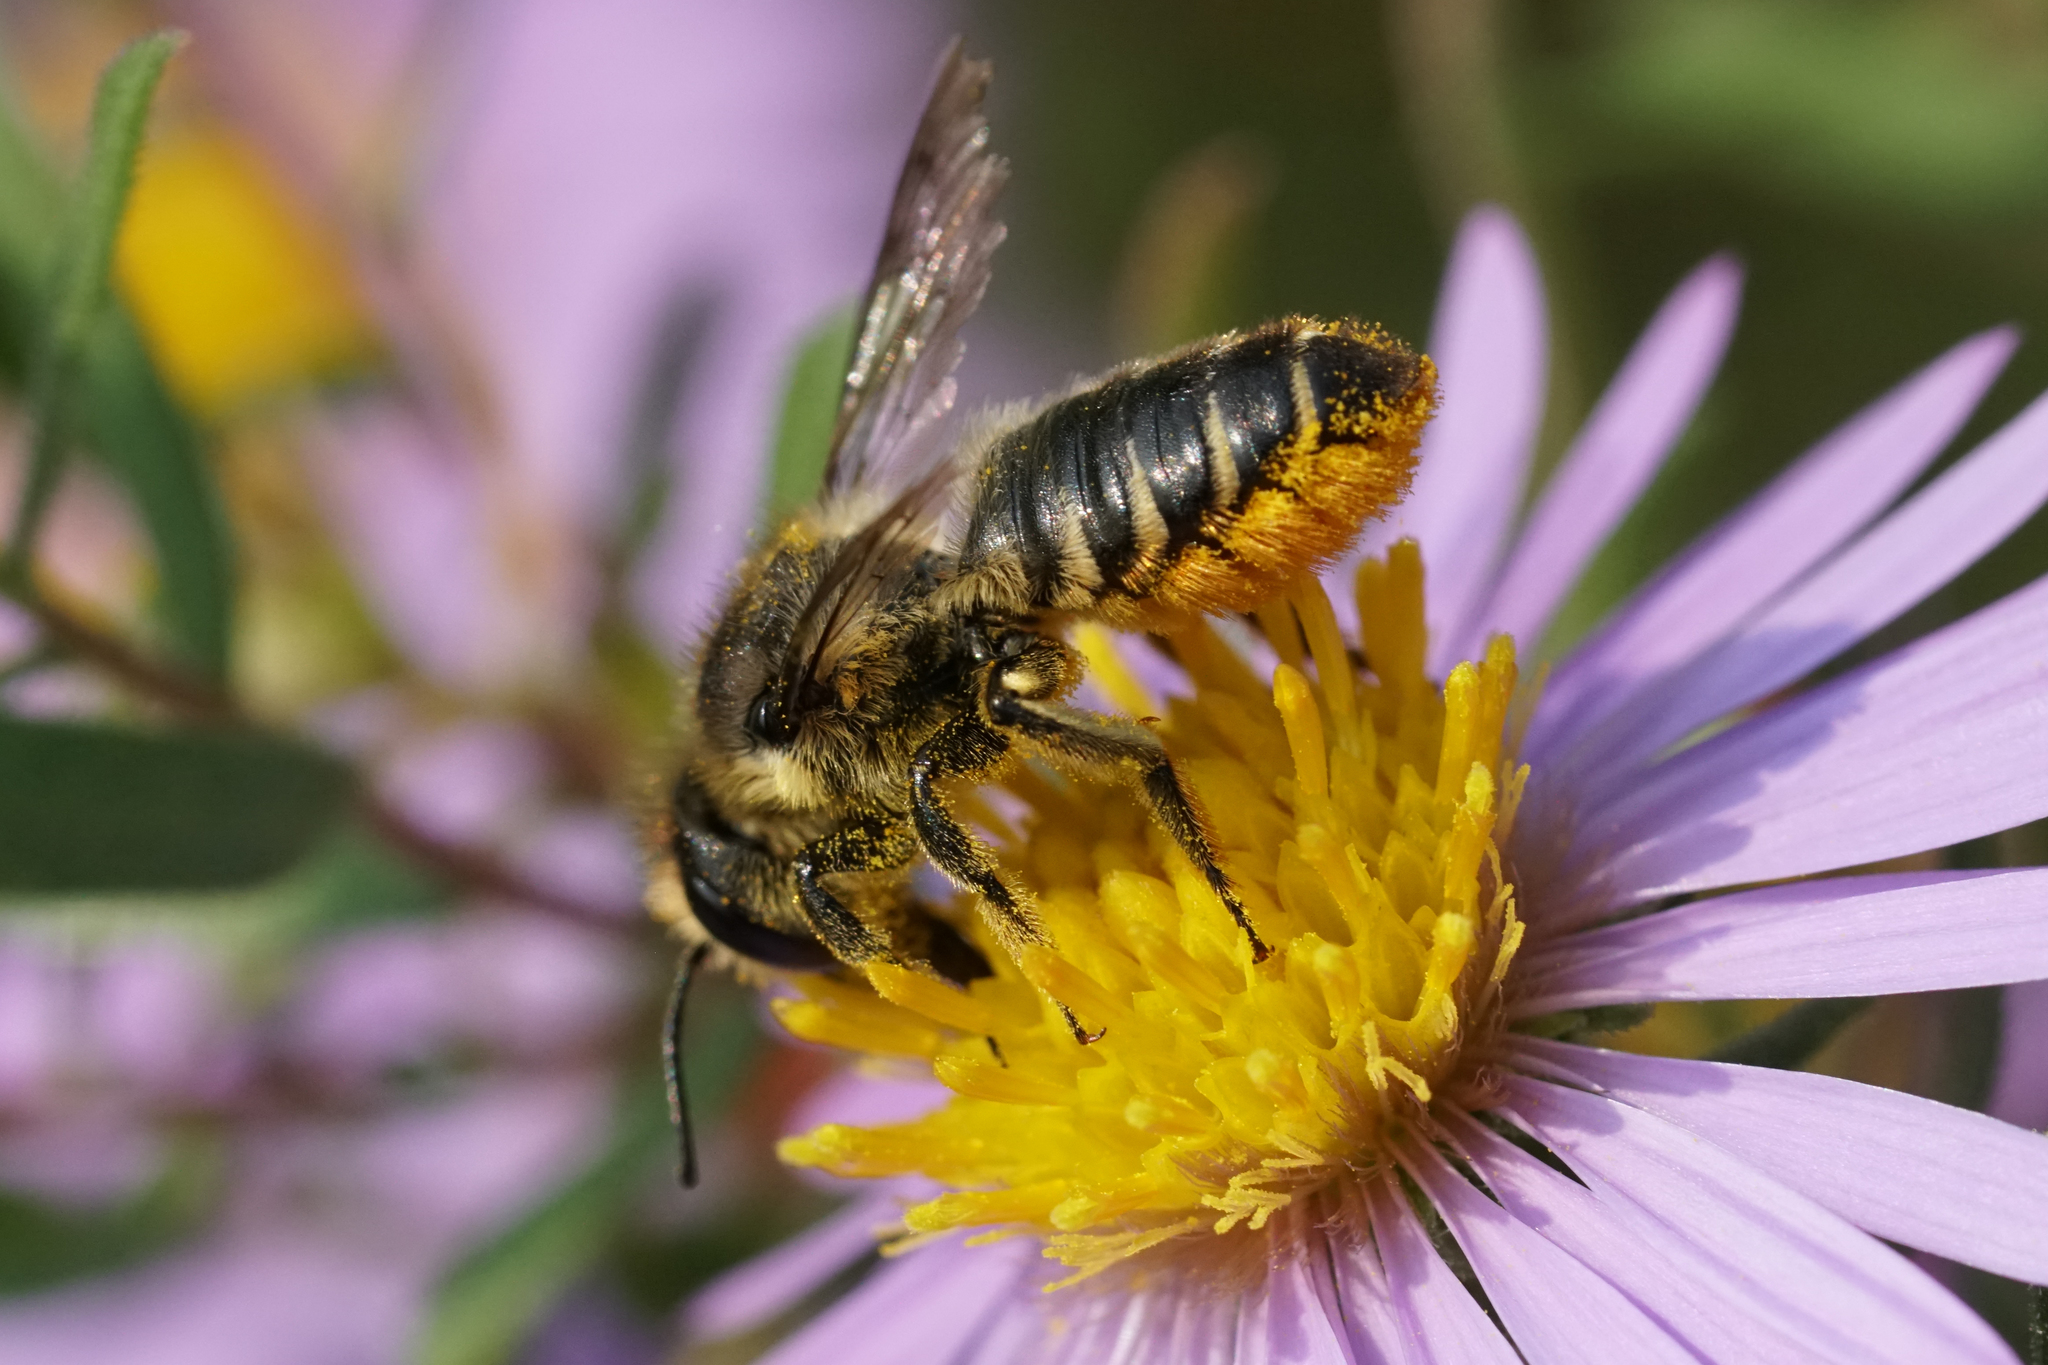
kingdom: Animalia
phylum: Arthropoda
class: Insecta
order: Hymenoptera
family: Megachilidae
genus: Megachile
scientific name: Megachile centuncularis
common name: Patchwork leafcutter bee
